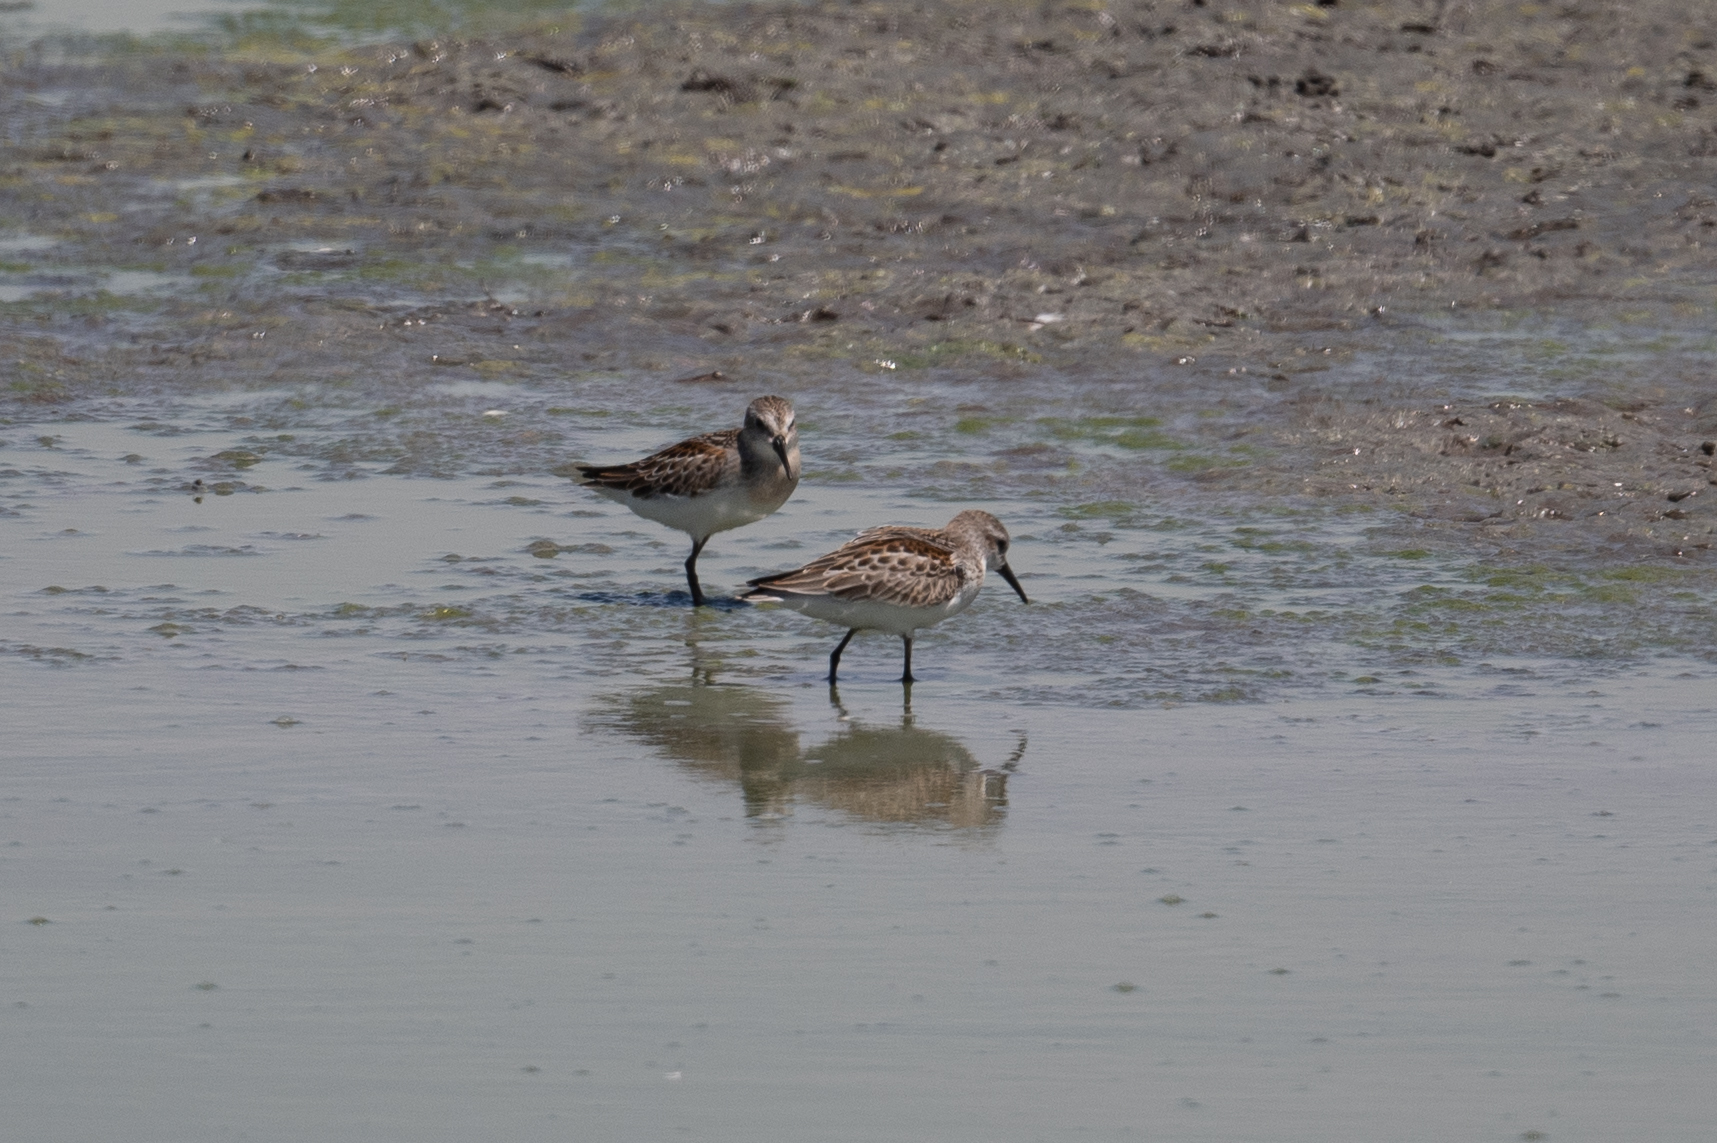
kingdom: Animalia
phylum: Chordata
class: Aves
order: Charadriiformes
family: Scolopacidae
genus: Calidris
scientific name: Calidris mauri
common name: Western sandpiper
